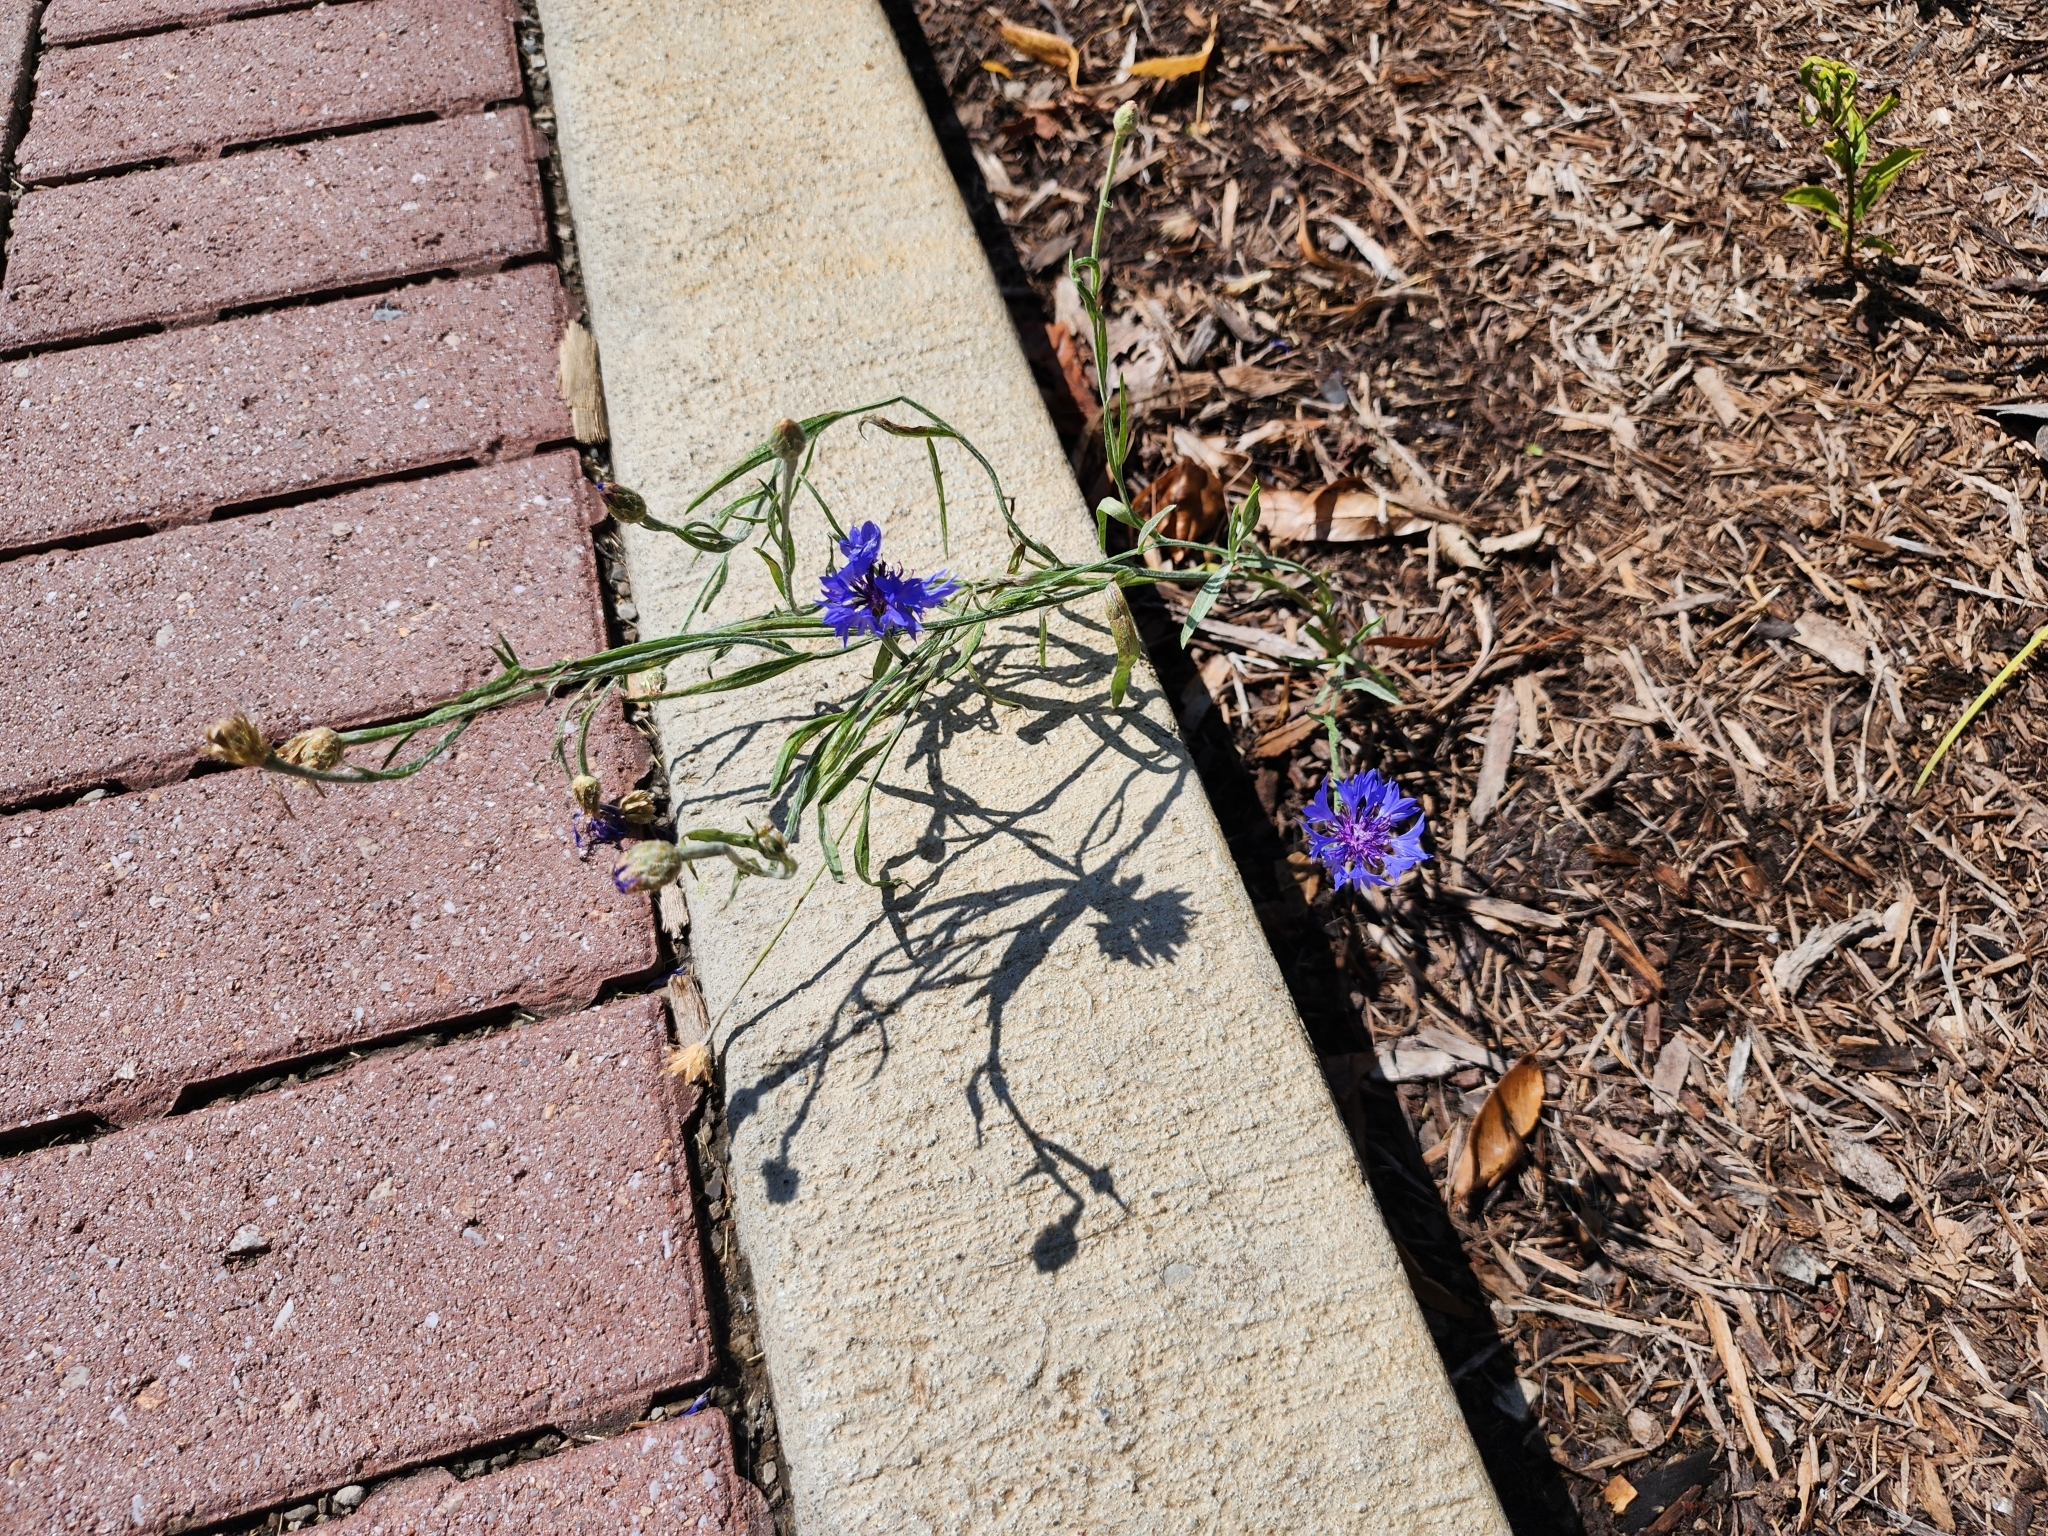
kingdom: Plantae
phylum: Tracheophyta
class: Magnoliopsida
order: Asterales
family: Asteraceae
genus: Centaurea
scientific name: Centaurea cyanus
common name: Cornflower
